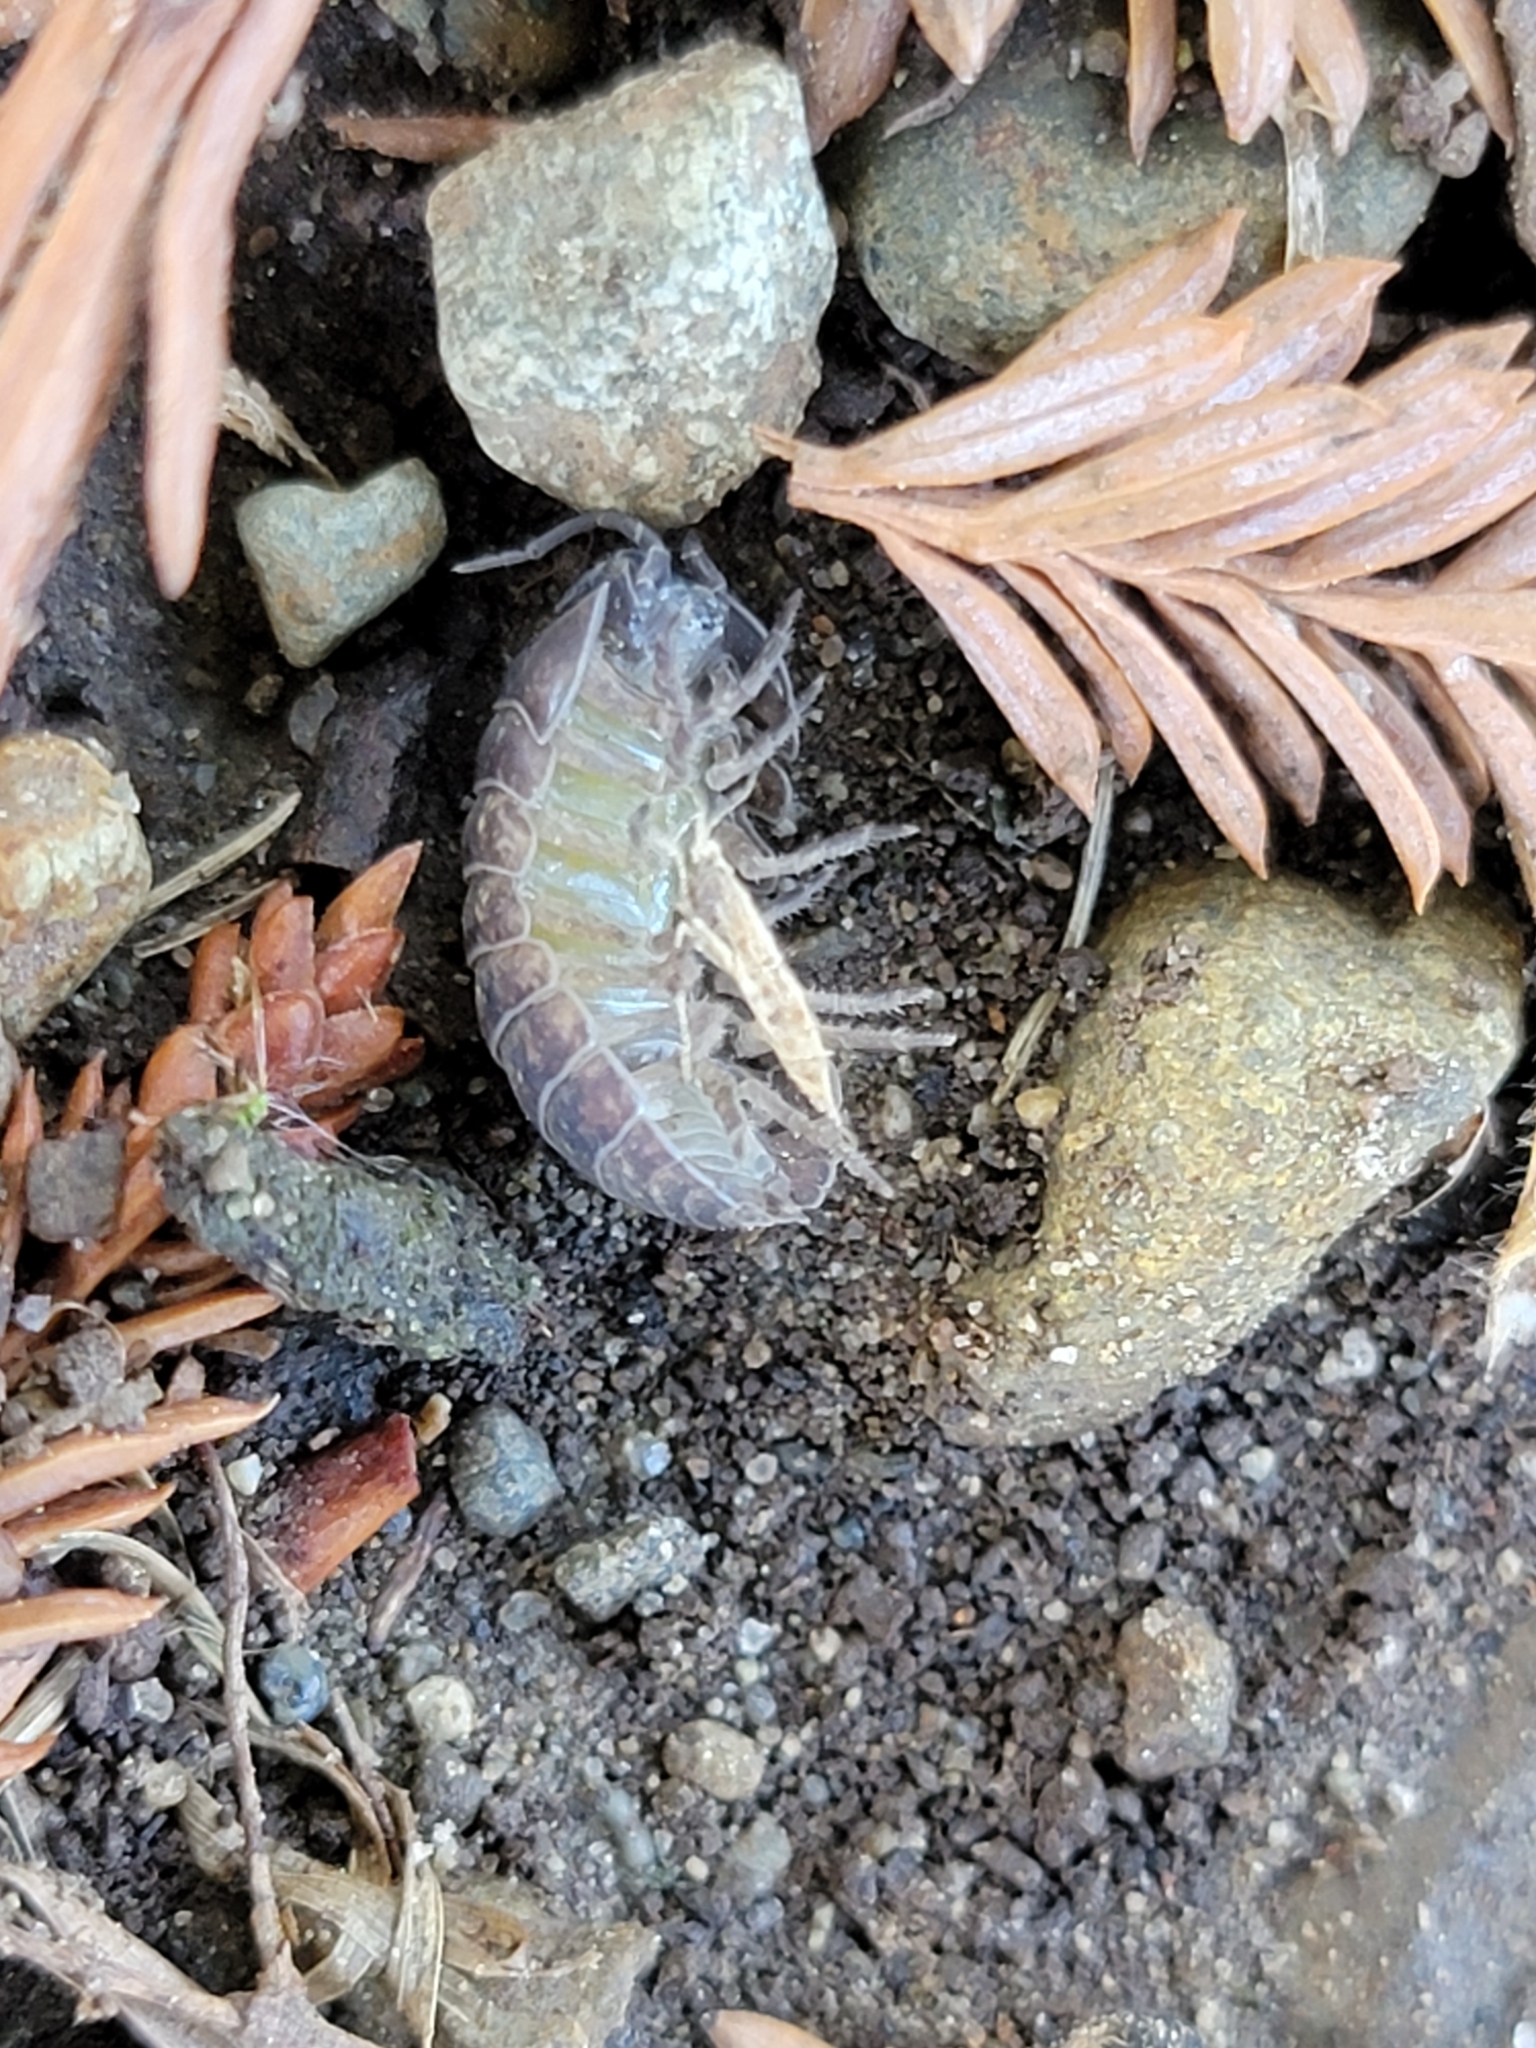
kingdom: Animalia
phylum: Arthropoda
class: Malacostraca
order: Isopoda
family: Armadillidiidae
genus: Armadillidium
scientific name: Armadillidium vulgare
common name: Common pill woodlouse
